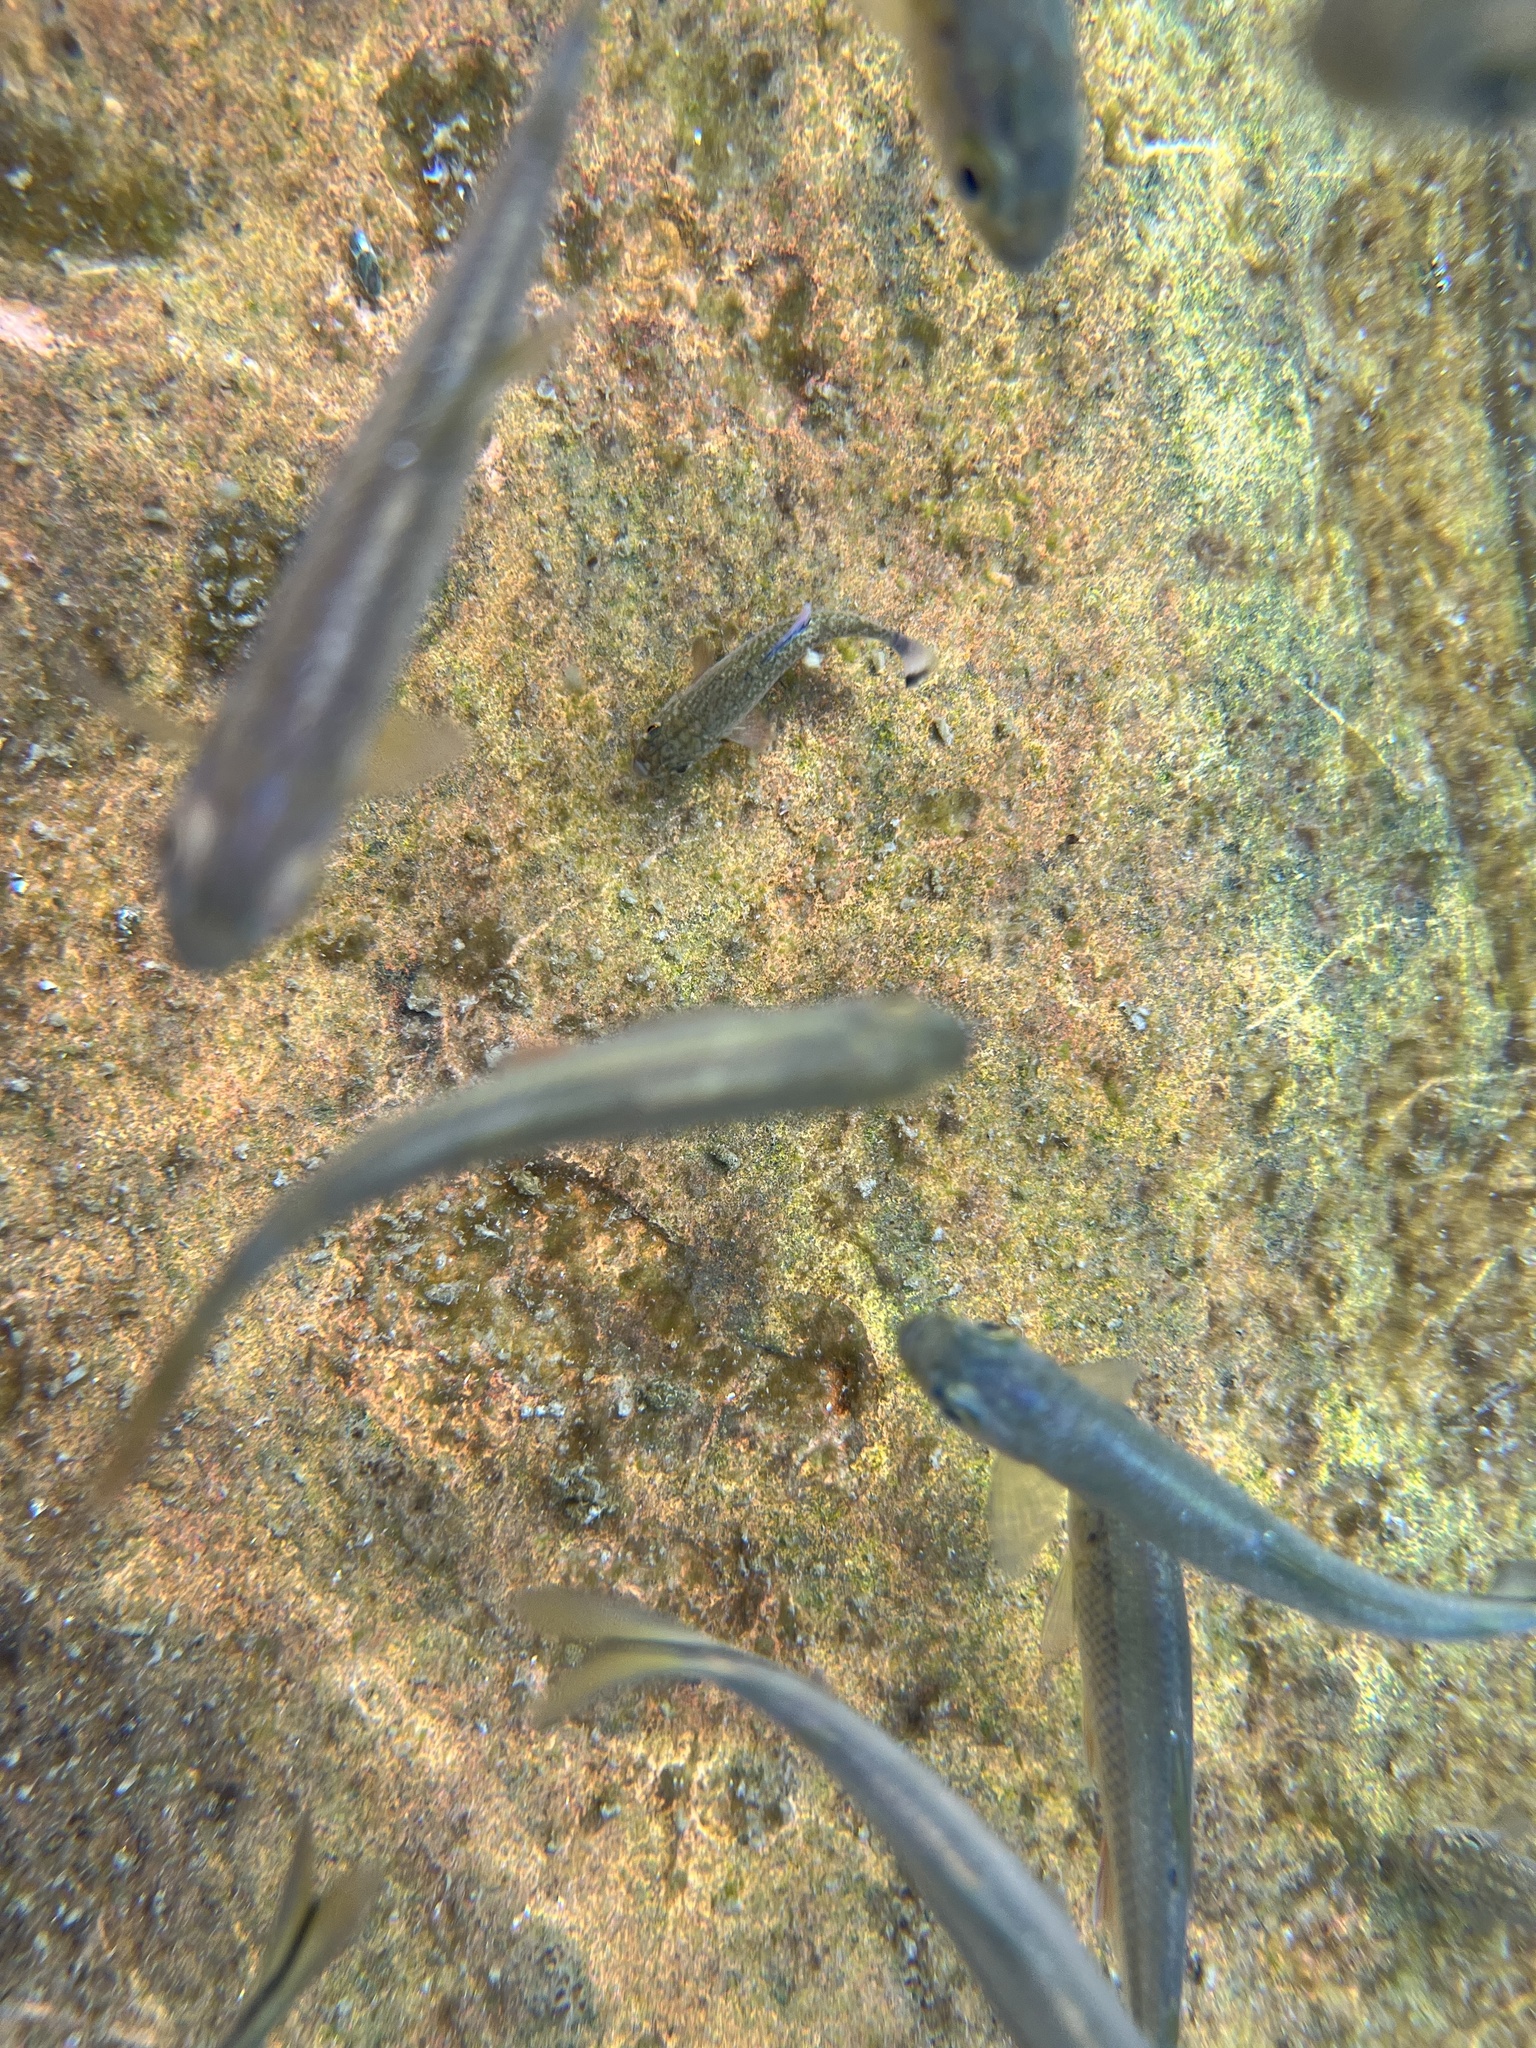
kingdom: Animalia
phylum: Chordata
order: Cyprinodontiformes
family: Cyprinodontidae
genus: Cyprinodon
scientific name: Cyprinodon elegans
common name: Comanche springs pupfish
